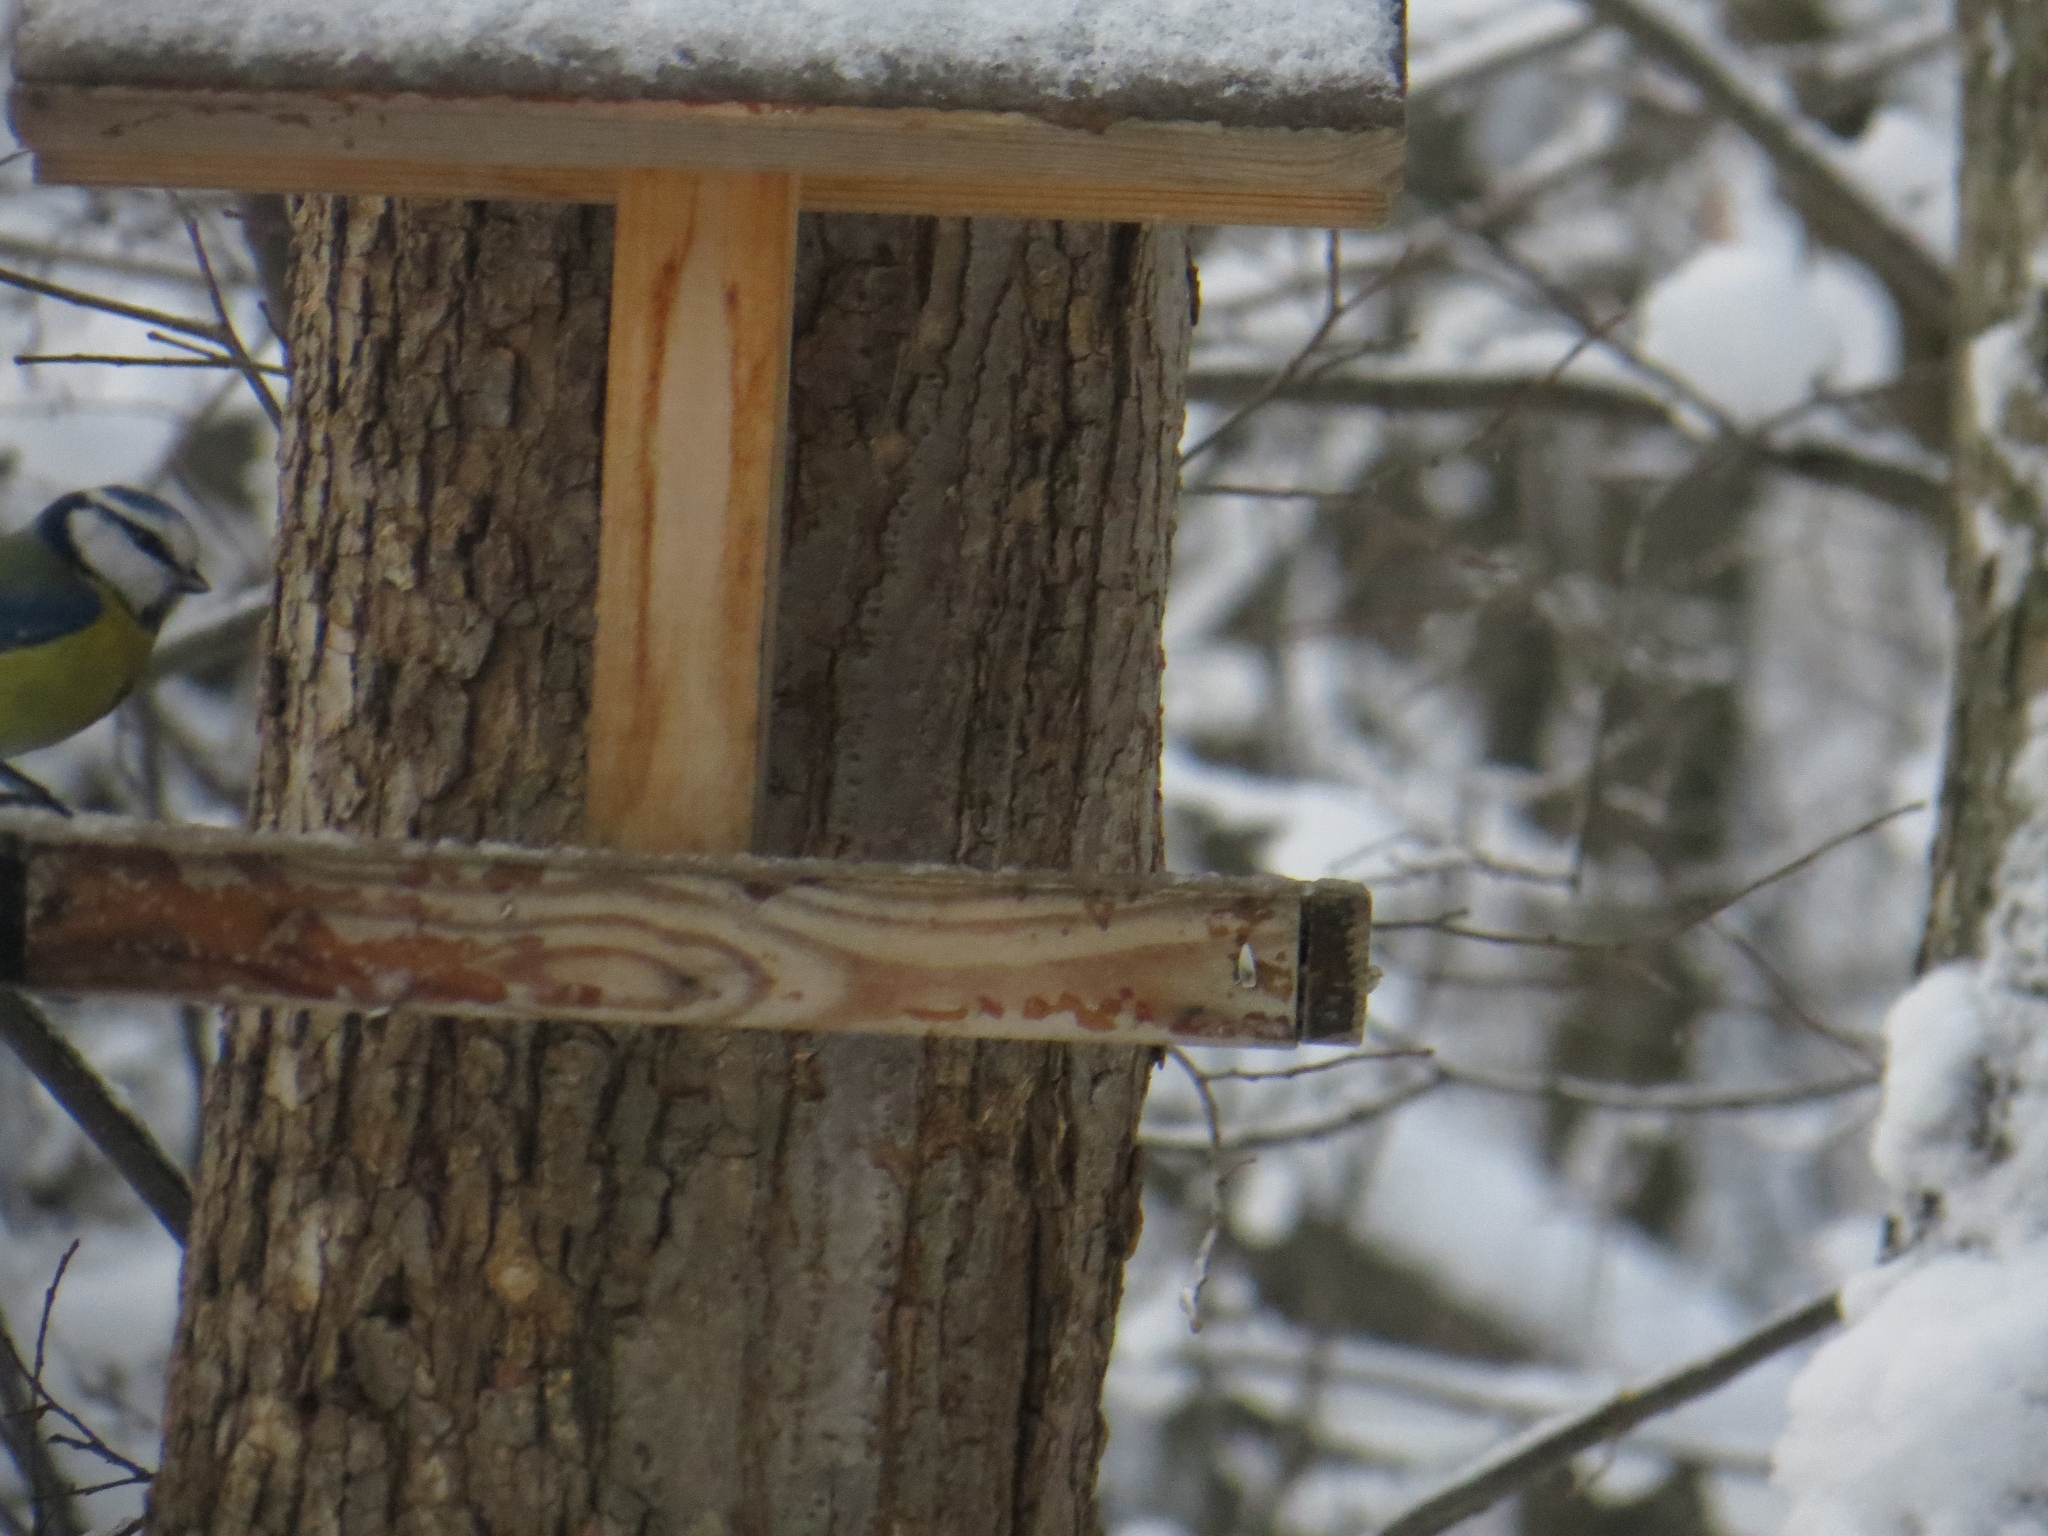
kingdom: Animalia
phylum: Chordata
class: Aves
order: Passeriformes
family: Paridae
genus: Cyanistes
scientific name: Cyanistes caeruleus
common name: Eurasian blue tit
